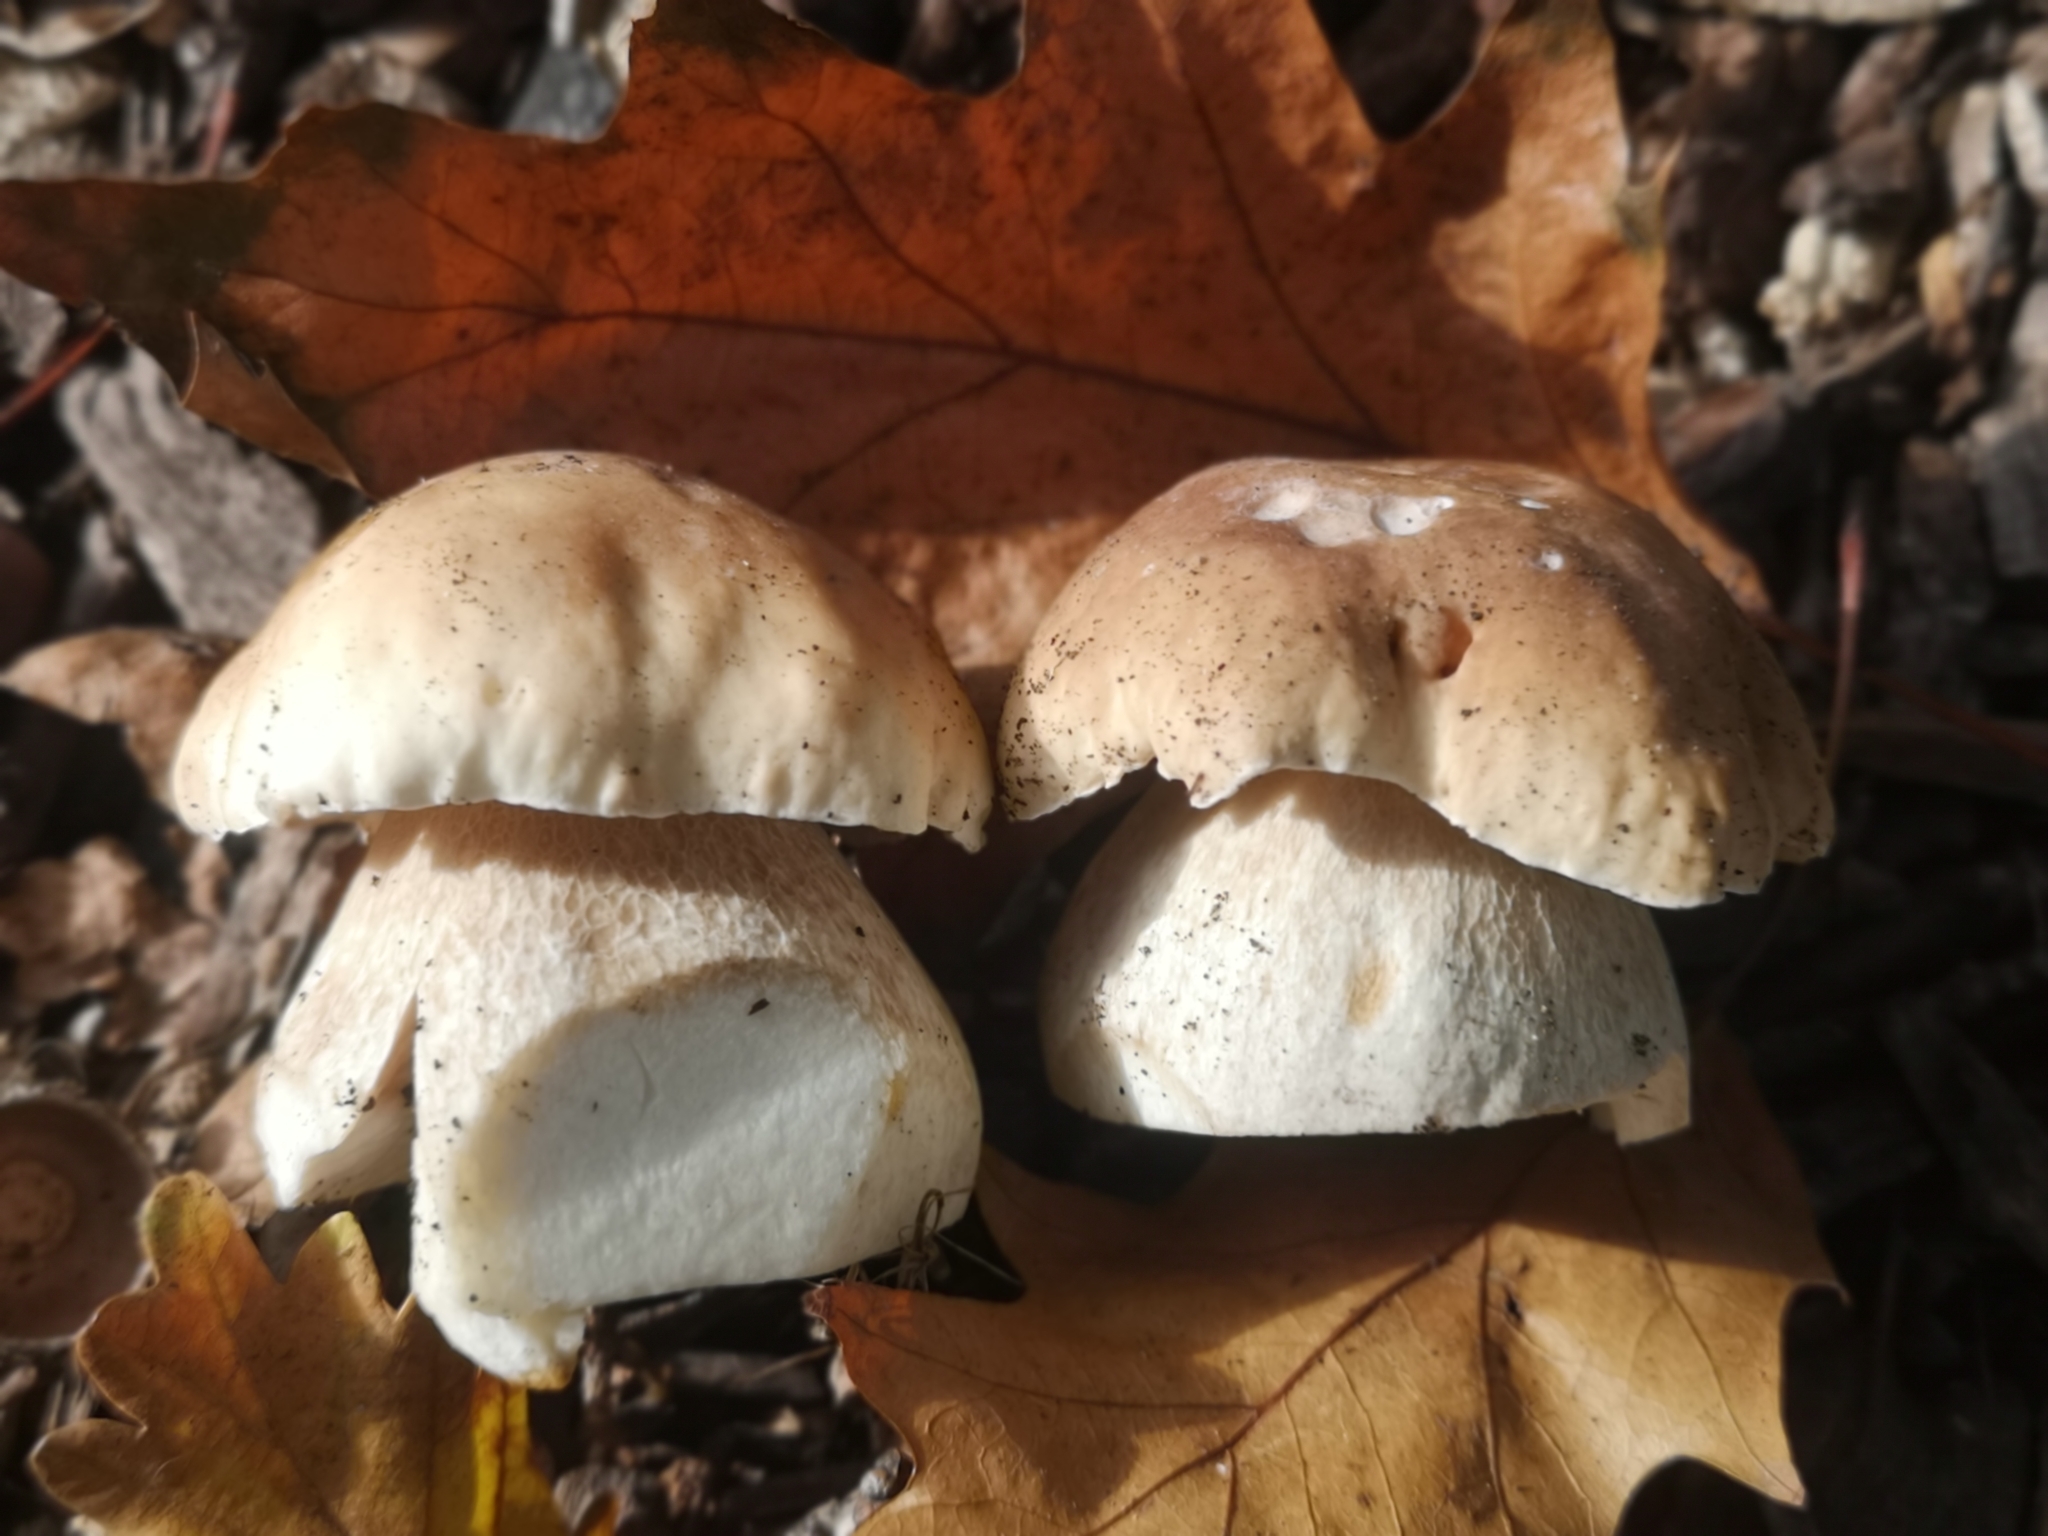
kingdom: Fungi
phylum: Basidiomycota
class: Agaricomycetes
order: Boletales
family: Boletaceae
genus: Boletus
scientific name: Boletus edulis
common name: Cep
